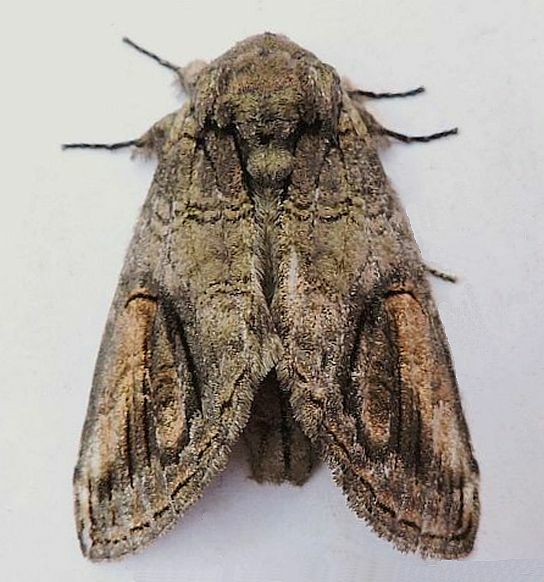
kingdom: Animalia
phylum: Arthropoda
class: Insecta
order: Lepidoptera
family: Notodontidae
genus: Heterocampa
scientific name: Heterocampa obliqua
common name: Oblique heterocampa
